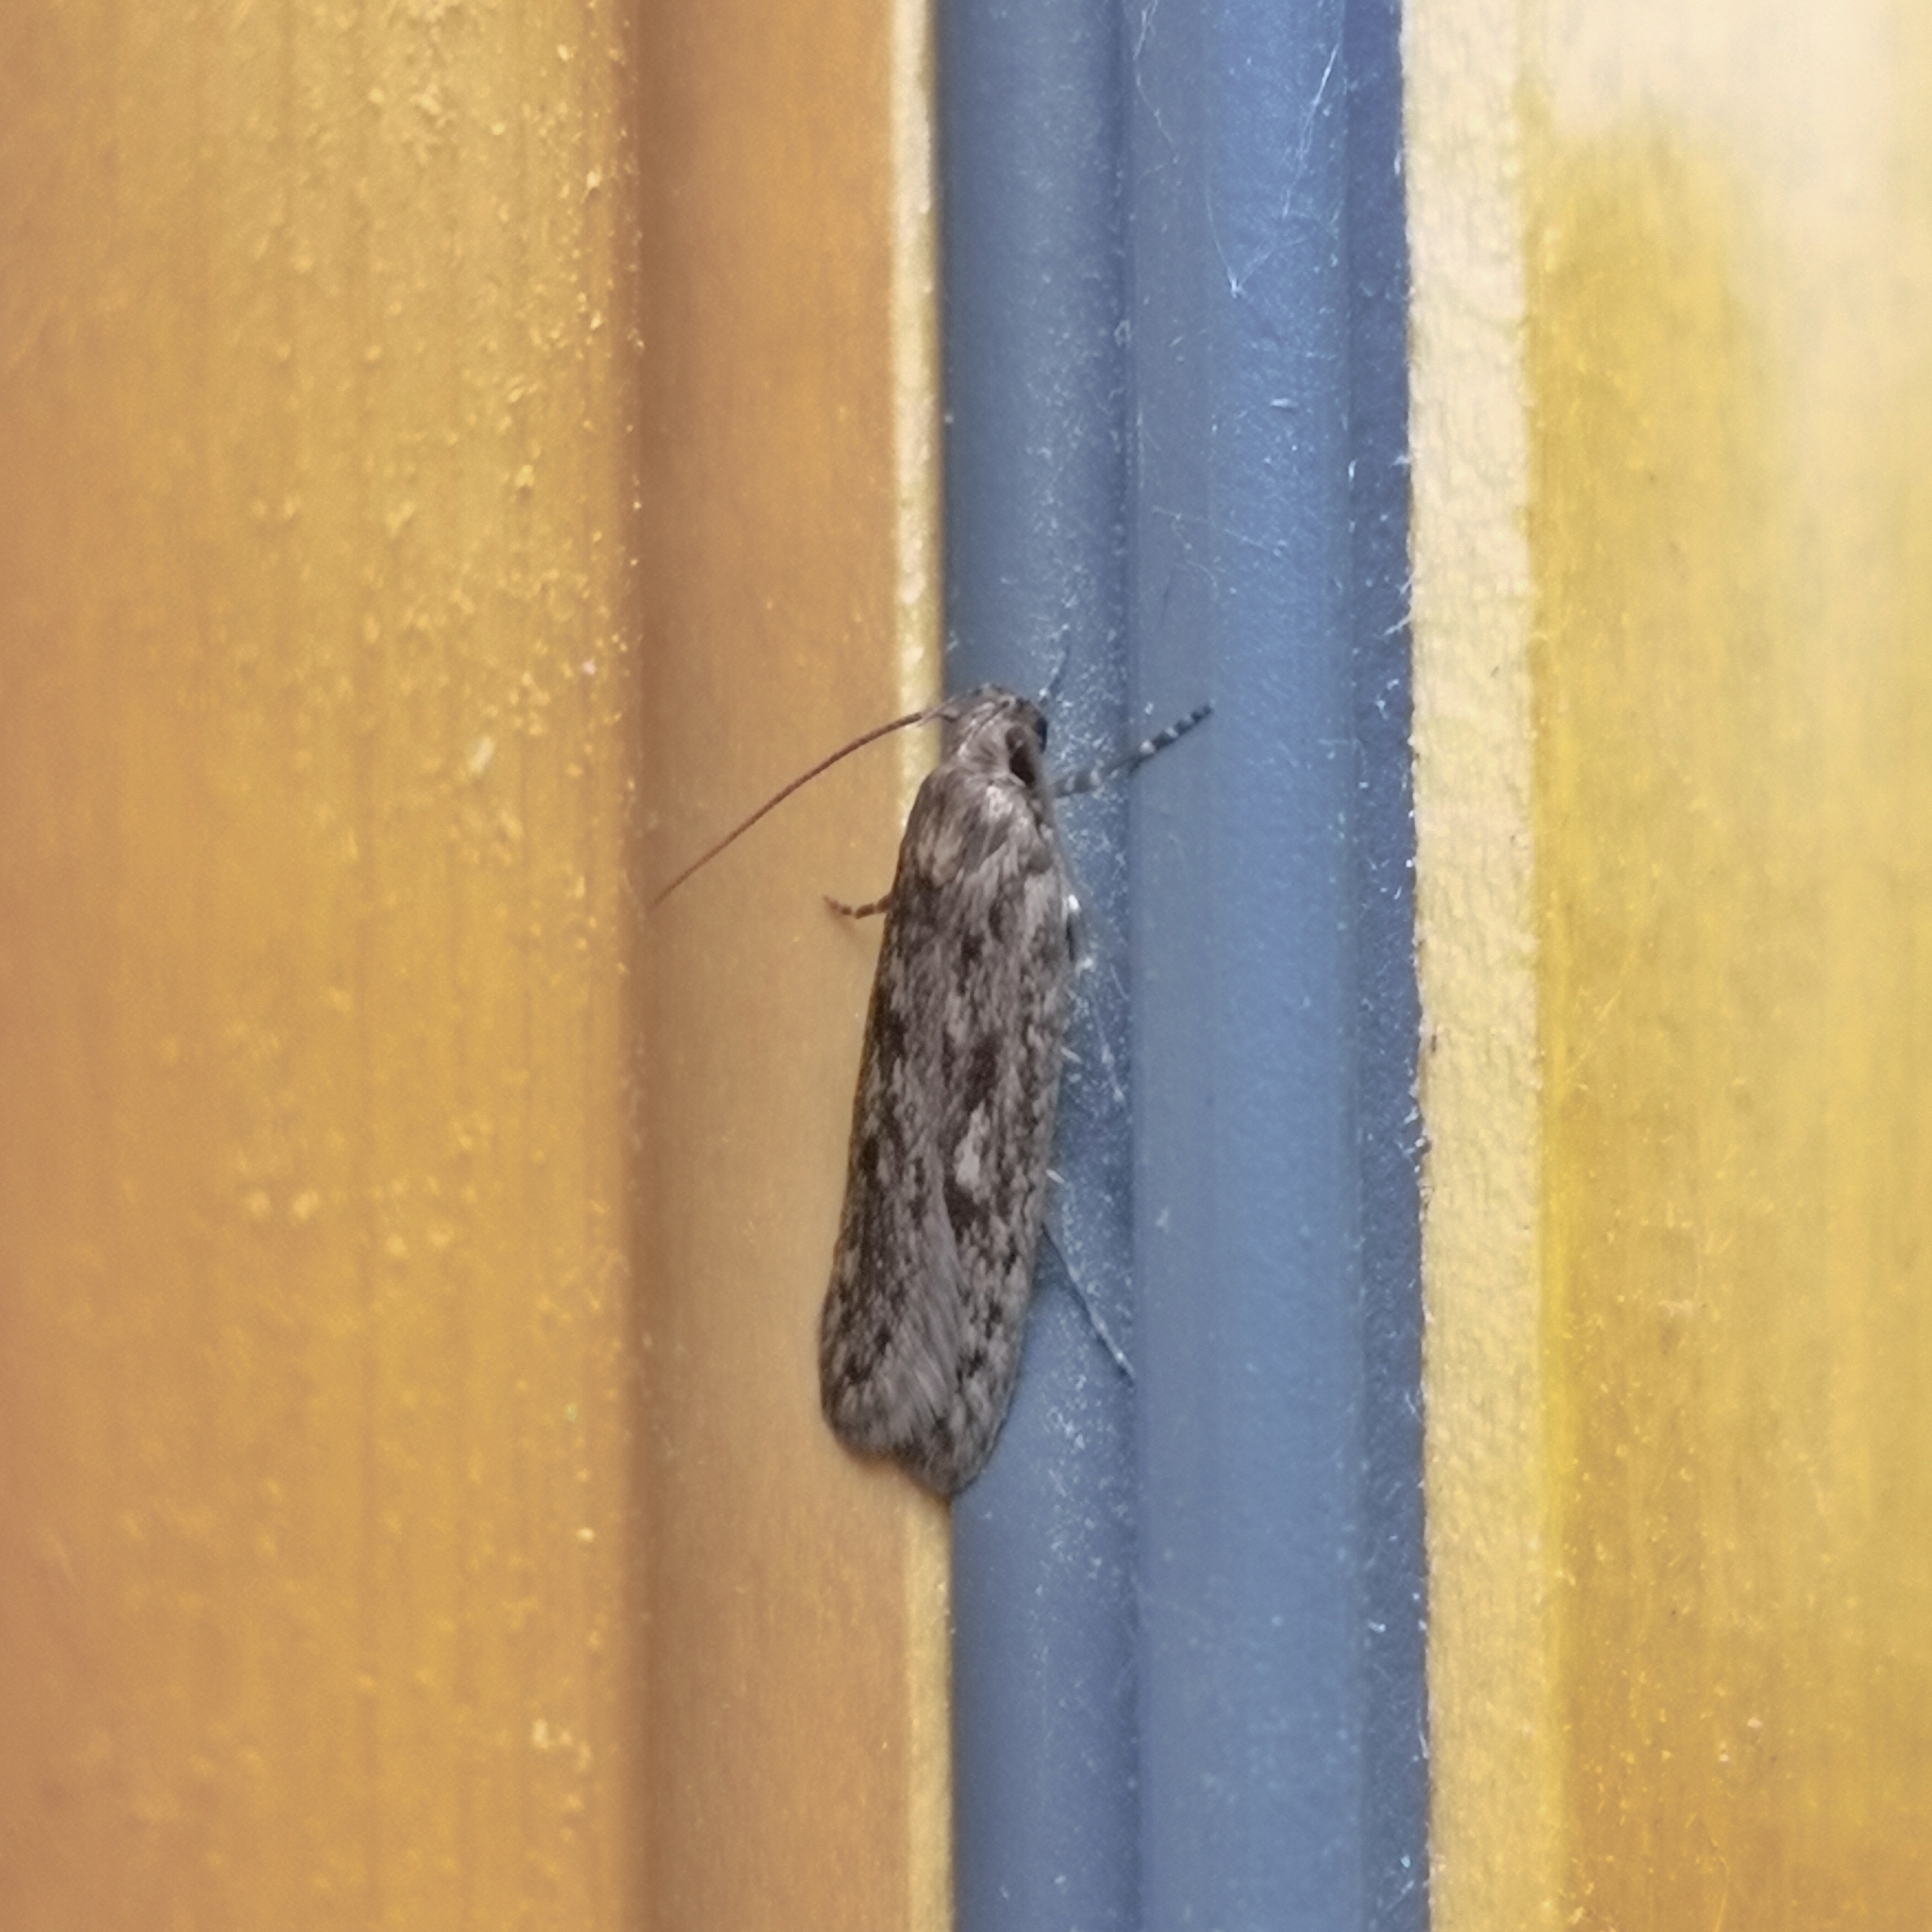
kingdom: Animalia
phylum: Arthropoda
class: Insecta
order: Lepidoptera
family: Oecophoridae
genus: Hofmannophila
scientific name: Hofmannophila pseudospretella
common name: Brown house moth
